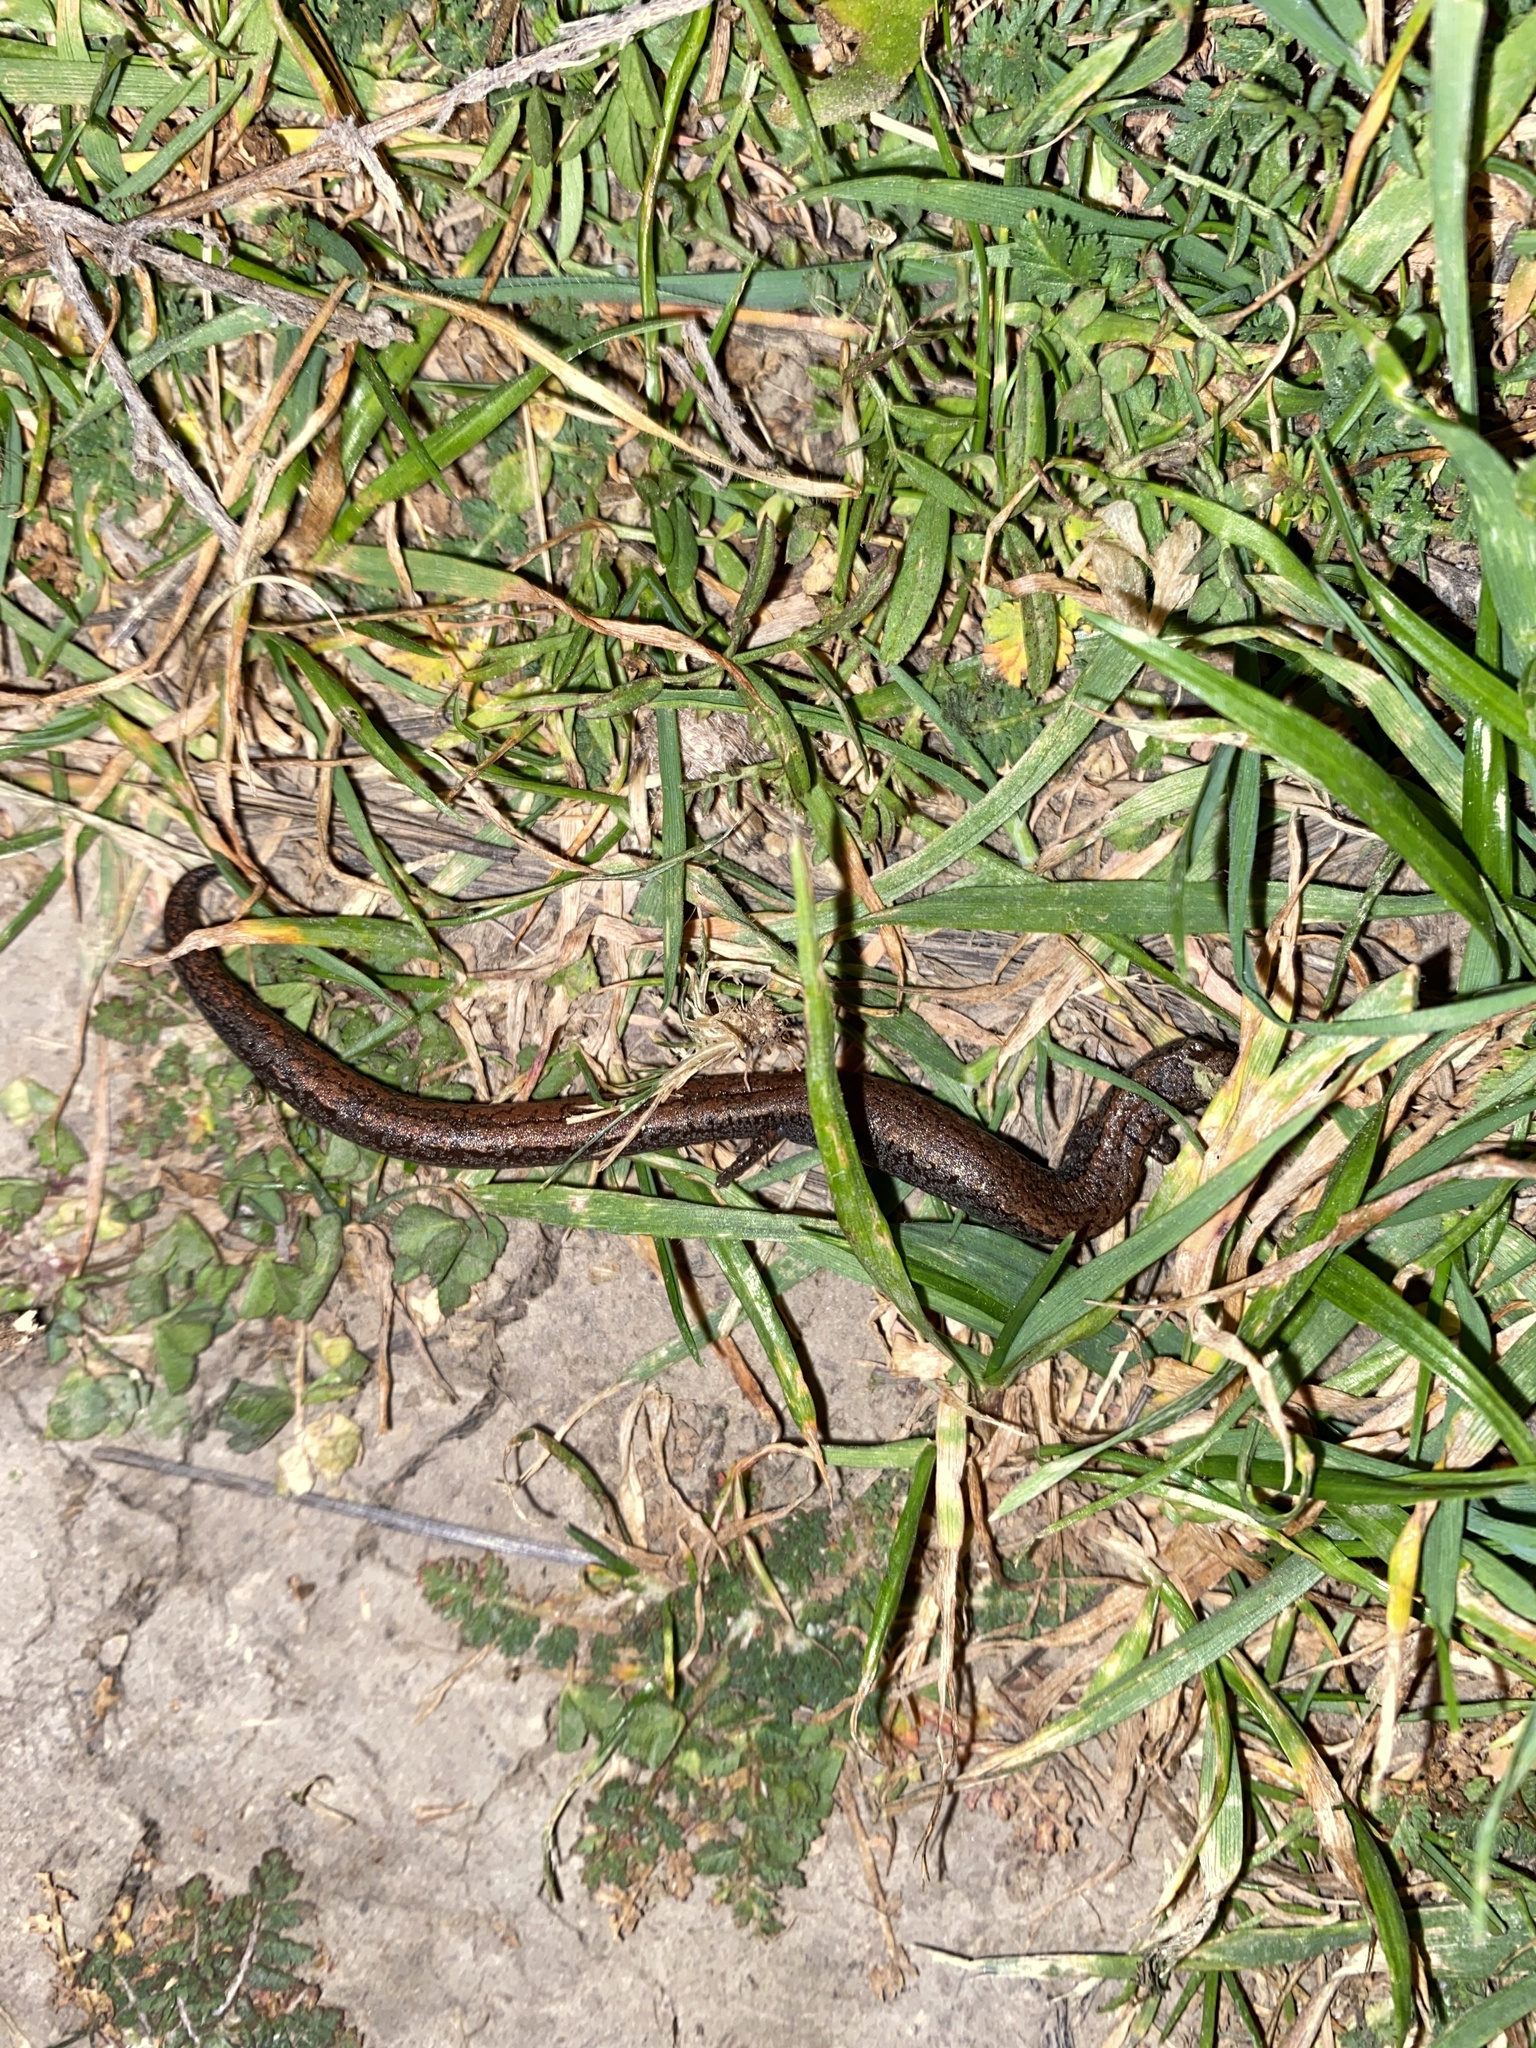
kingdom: Animalia
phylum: Chordata
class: Amphibia
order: Caudata
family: Plethodontidae
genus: Batrachoseps
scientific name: Batrachoseps attenuatus
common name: California slender salamander
